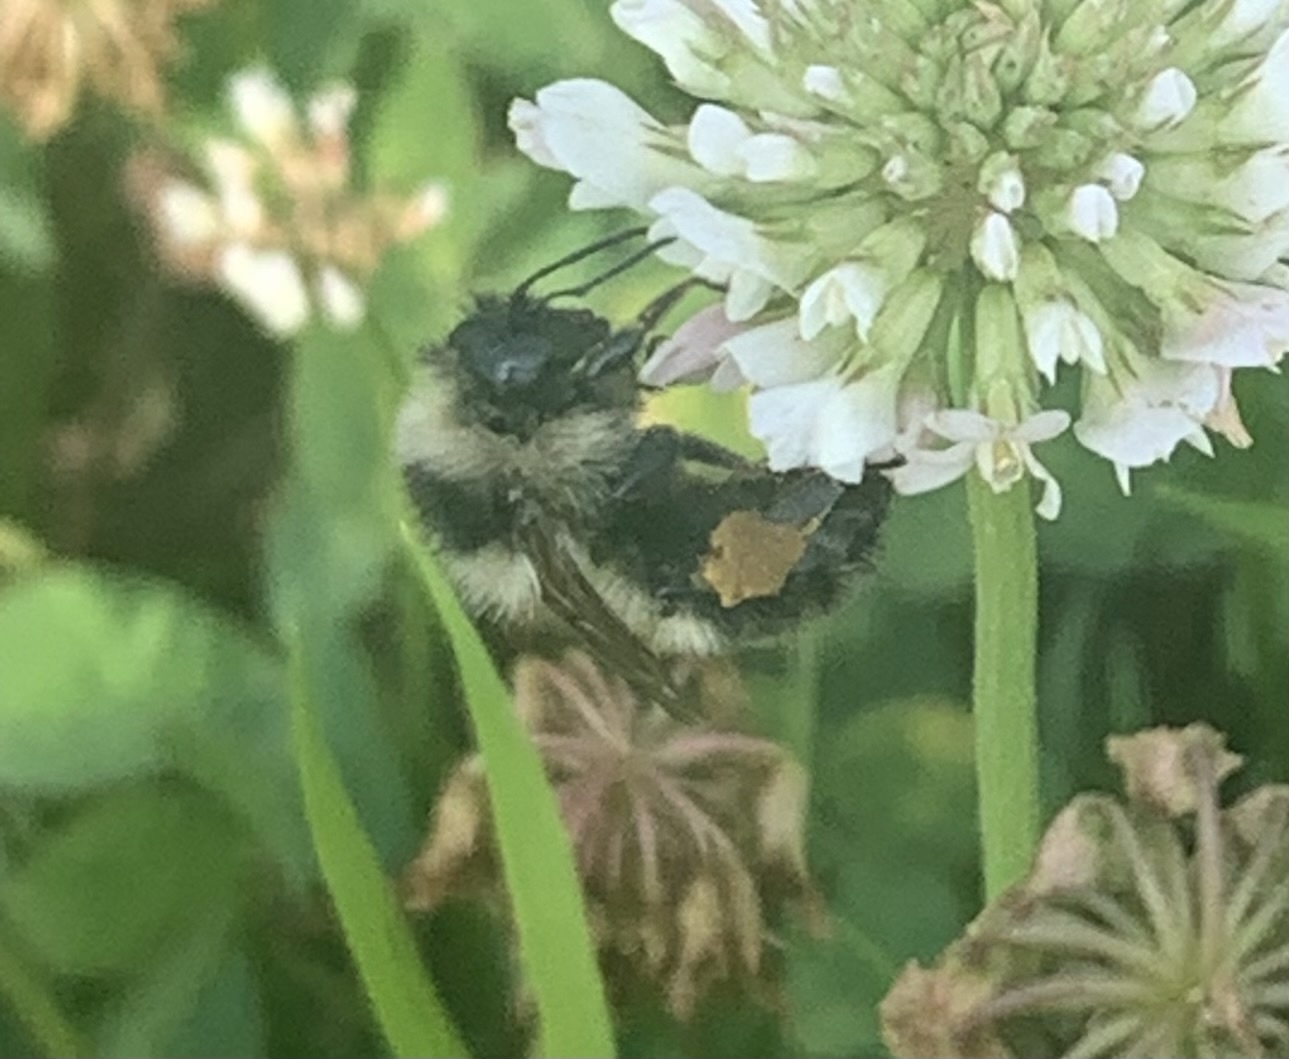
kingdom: Animalia
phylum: Arthropoda
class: Insecta
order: Hymenoptera
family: Apidae
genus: Bombus
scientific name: Bombus rufocinctus
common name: Red-belted bumble bee
